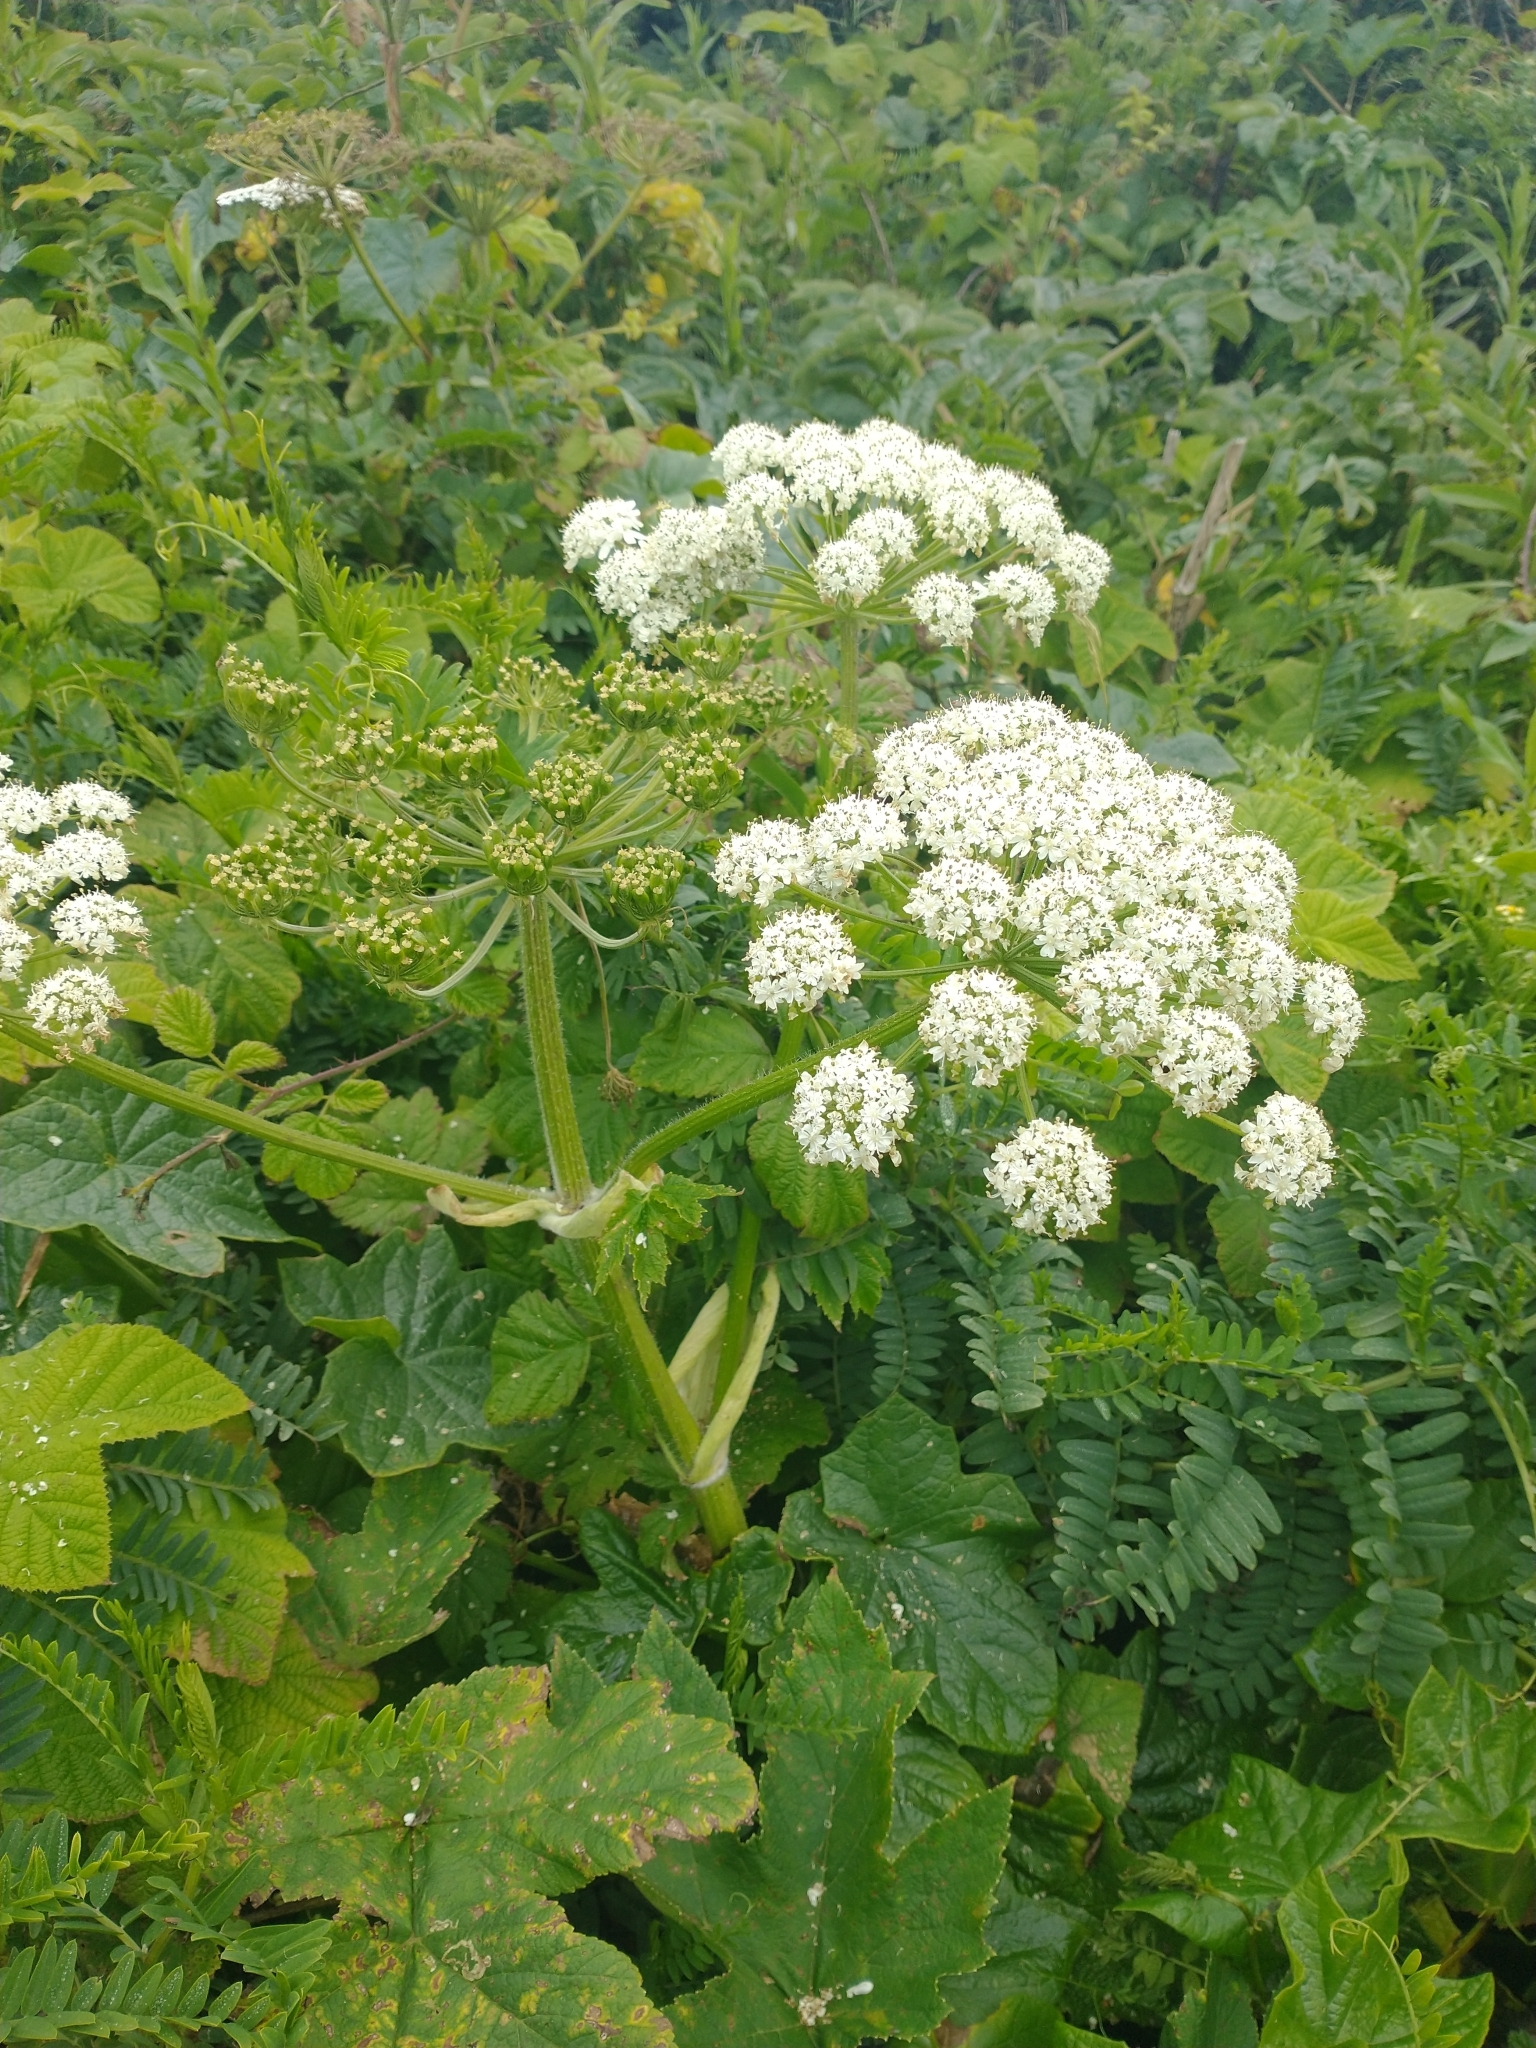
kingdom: Plantae
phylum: Tracheophyta
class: Magnoliopsida
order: Apiales
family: Apiaceae
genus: Angelica
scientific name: Angelica hendersonii
